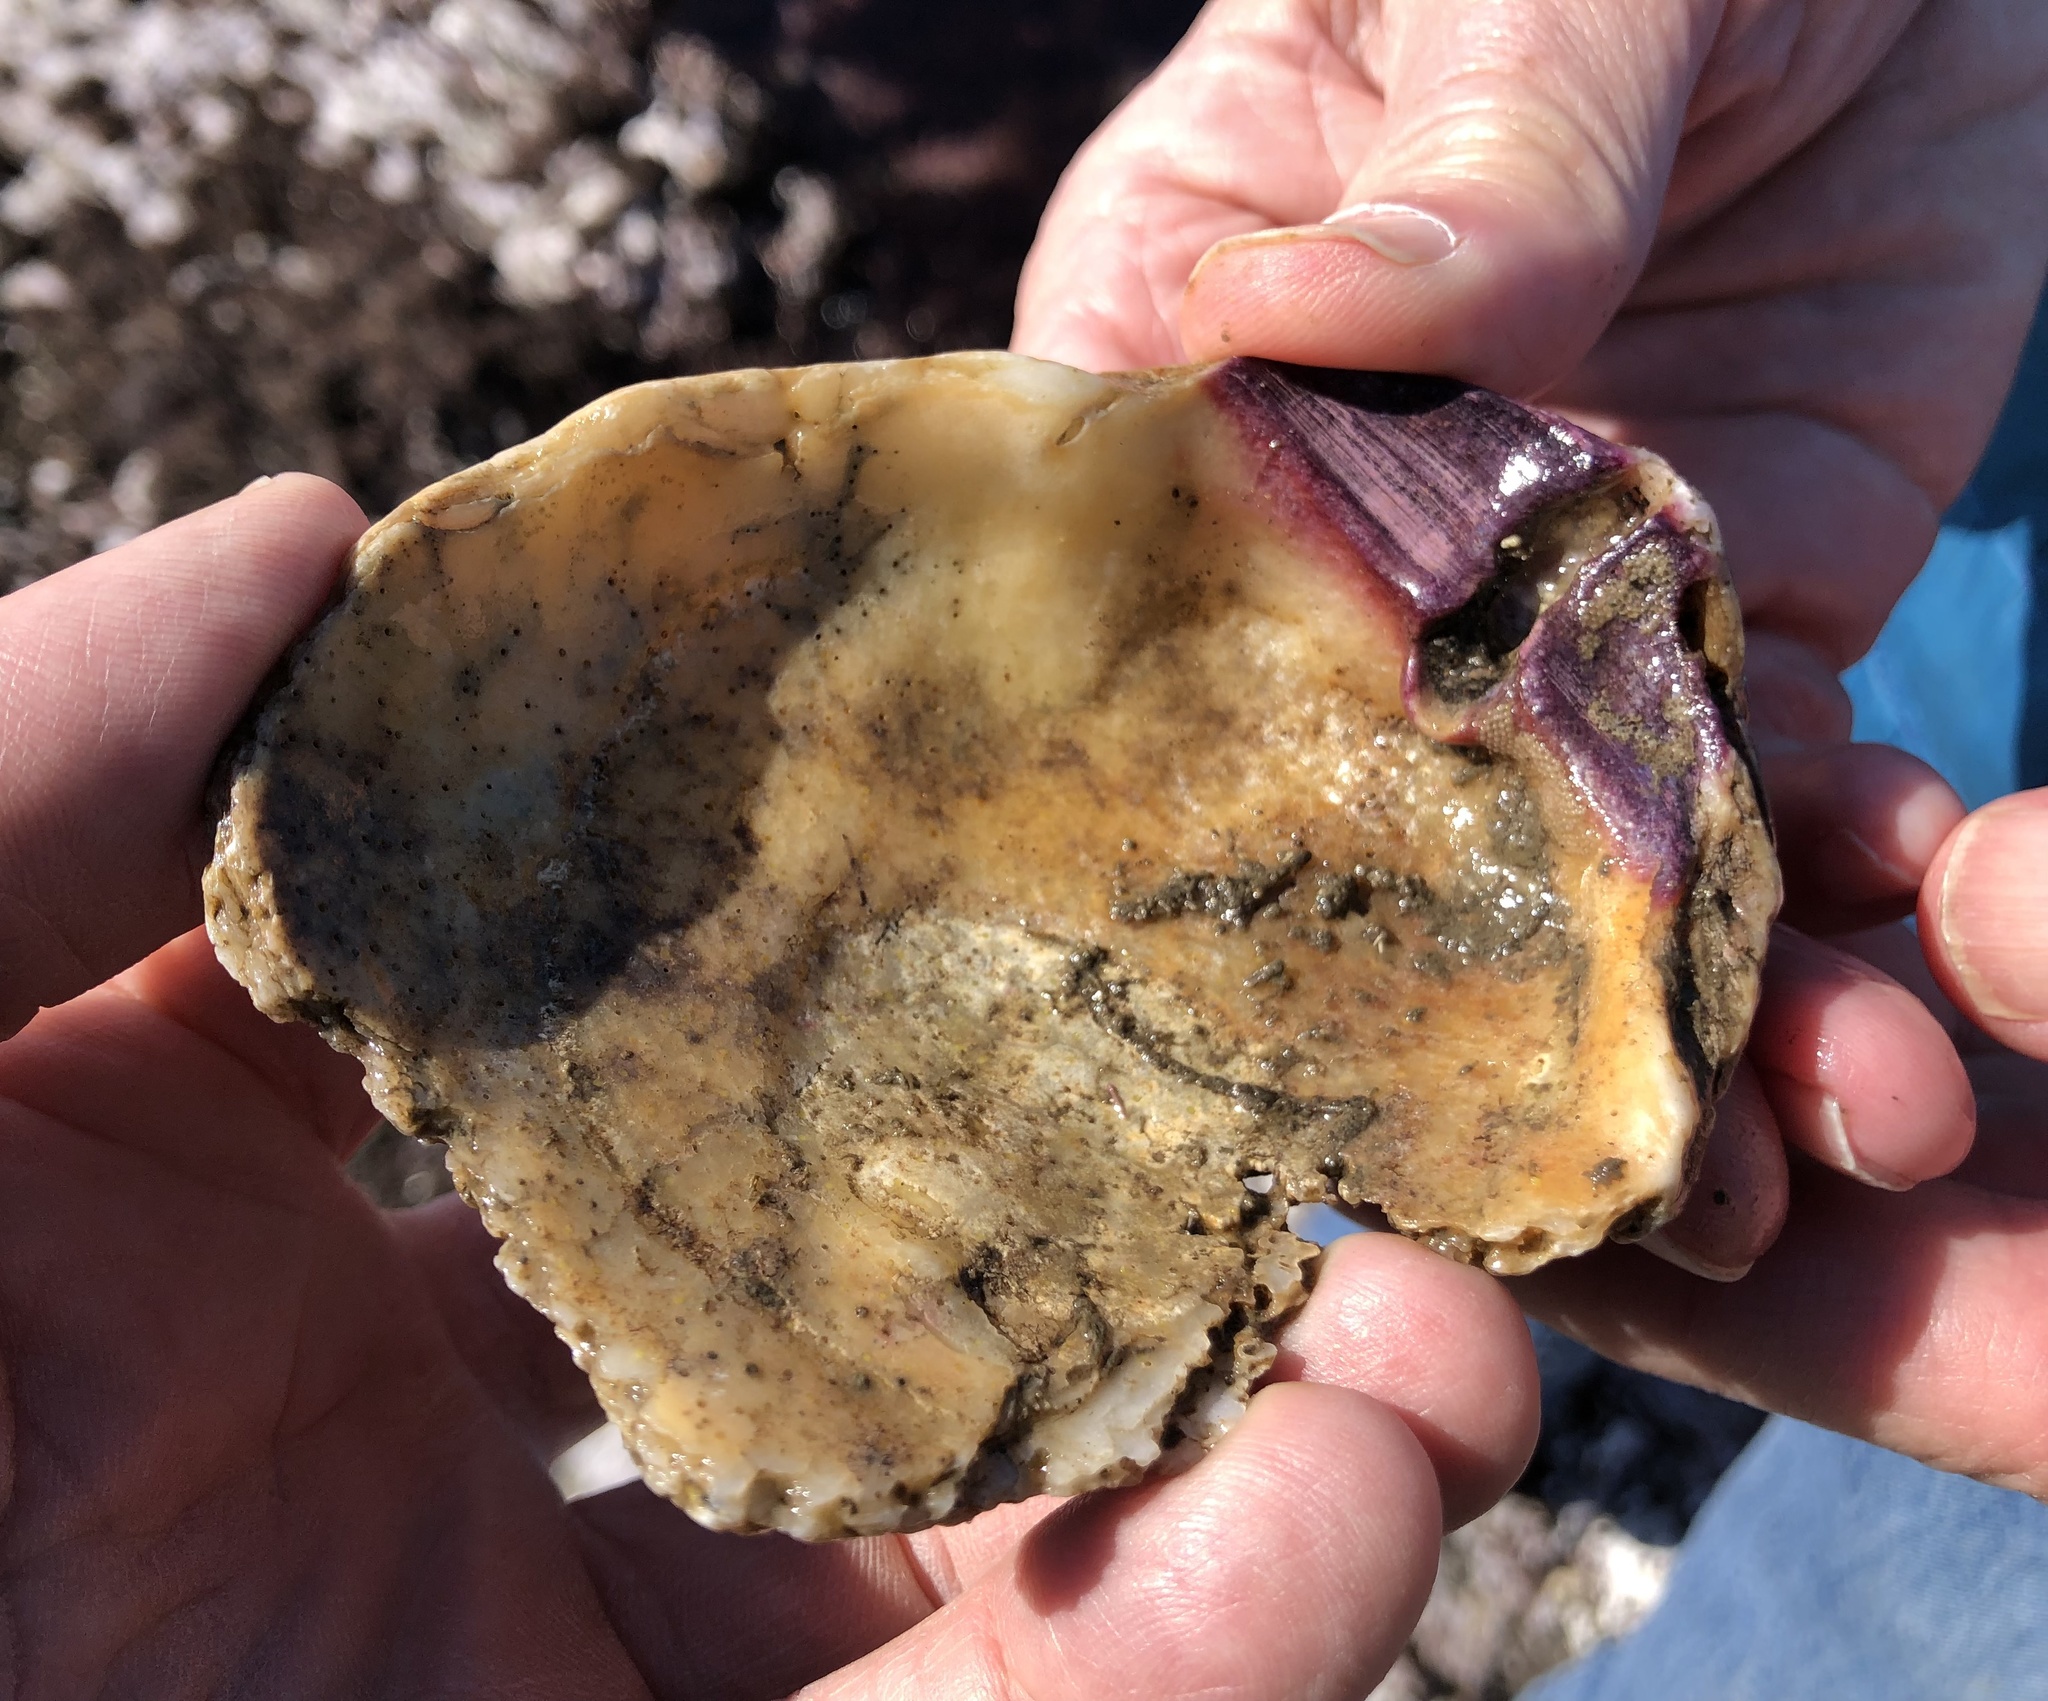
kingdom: Animalia
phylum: Mollusca
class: Bivalvia
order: Pectinida
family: Pectinidae
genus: Crassadoma
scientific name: Crassadoma gigantea
